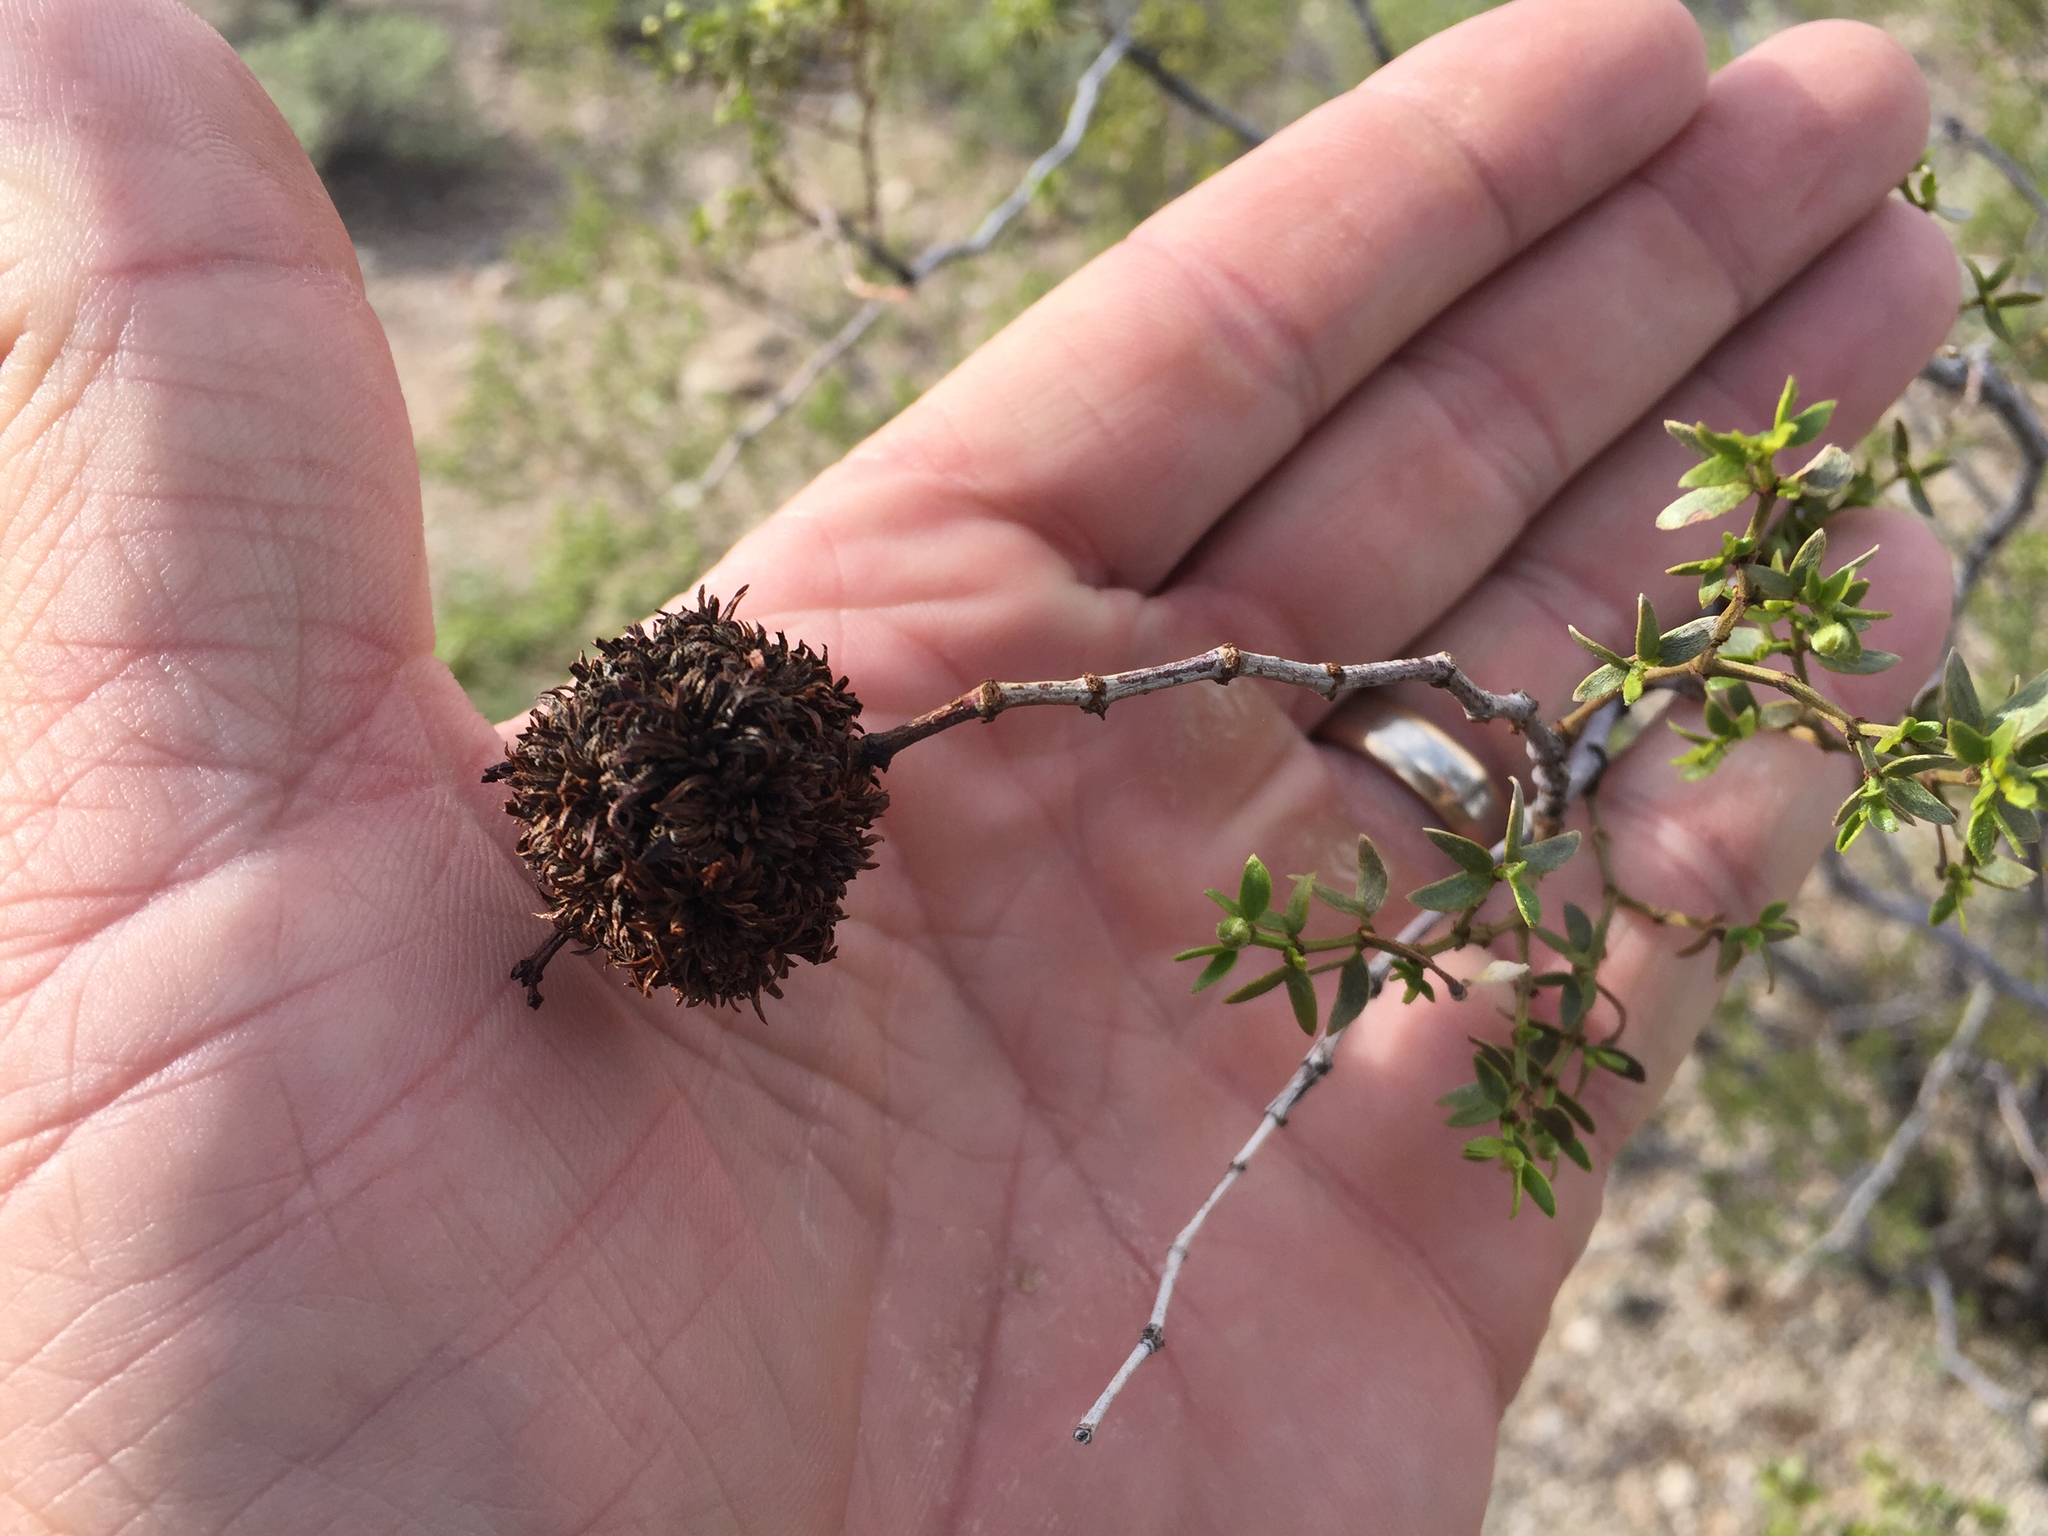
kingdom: Animalia
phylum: Arthropoda
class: Insecta
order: Diptera
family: Cecidomyiidae
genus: Asphondylia
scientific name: Asphondylia auripila
